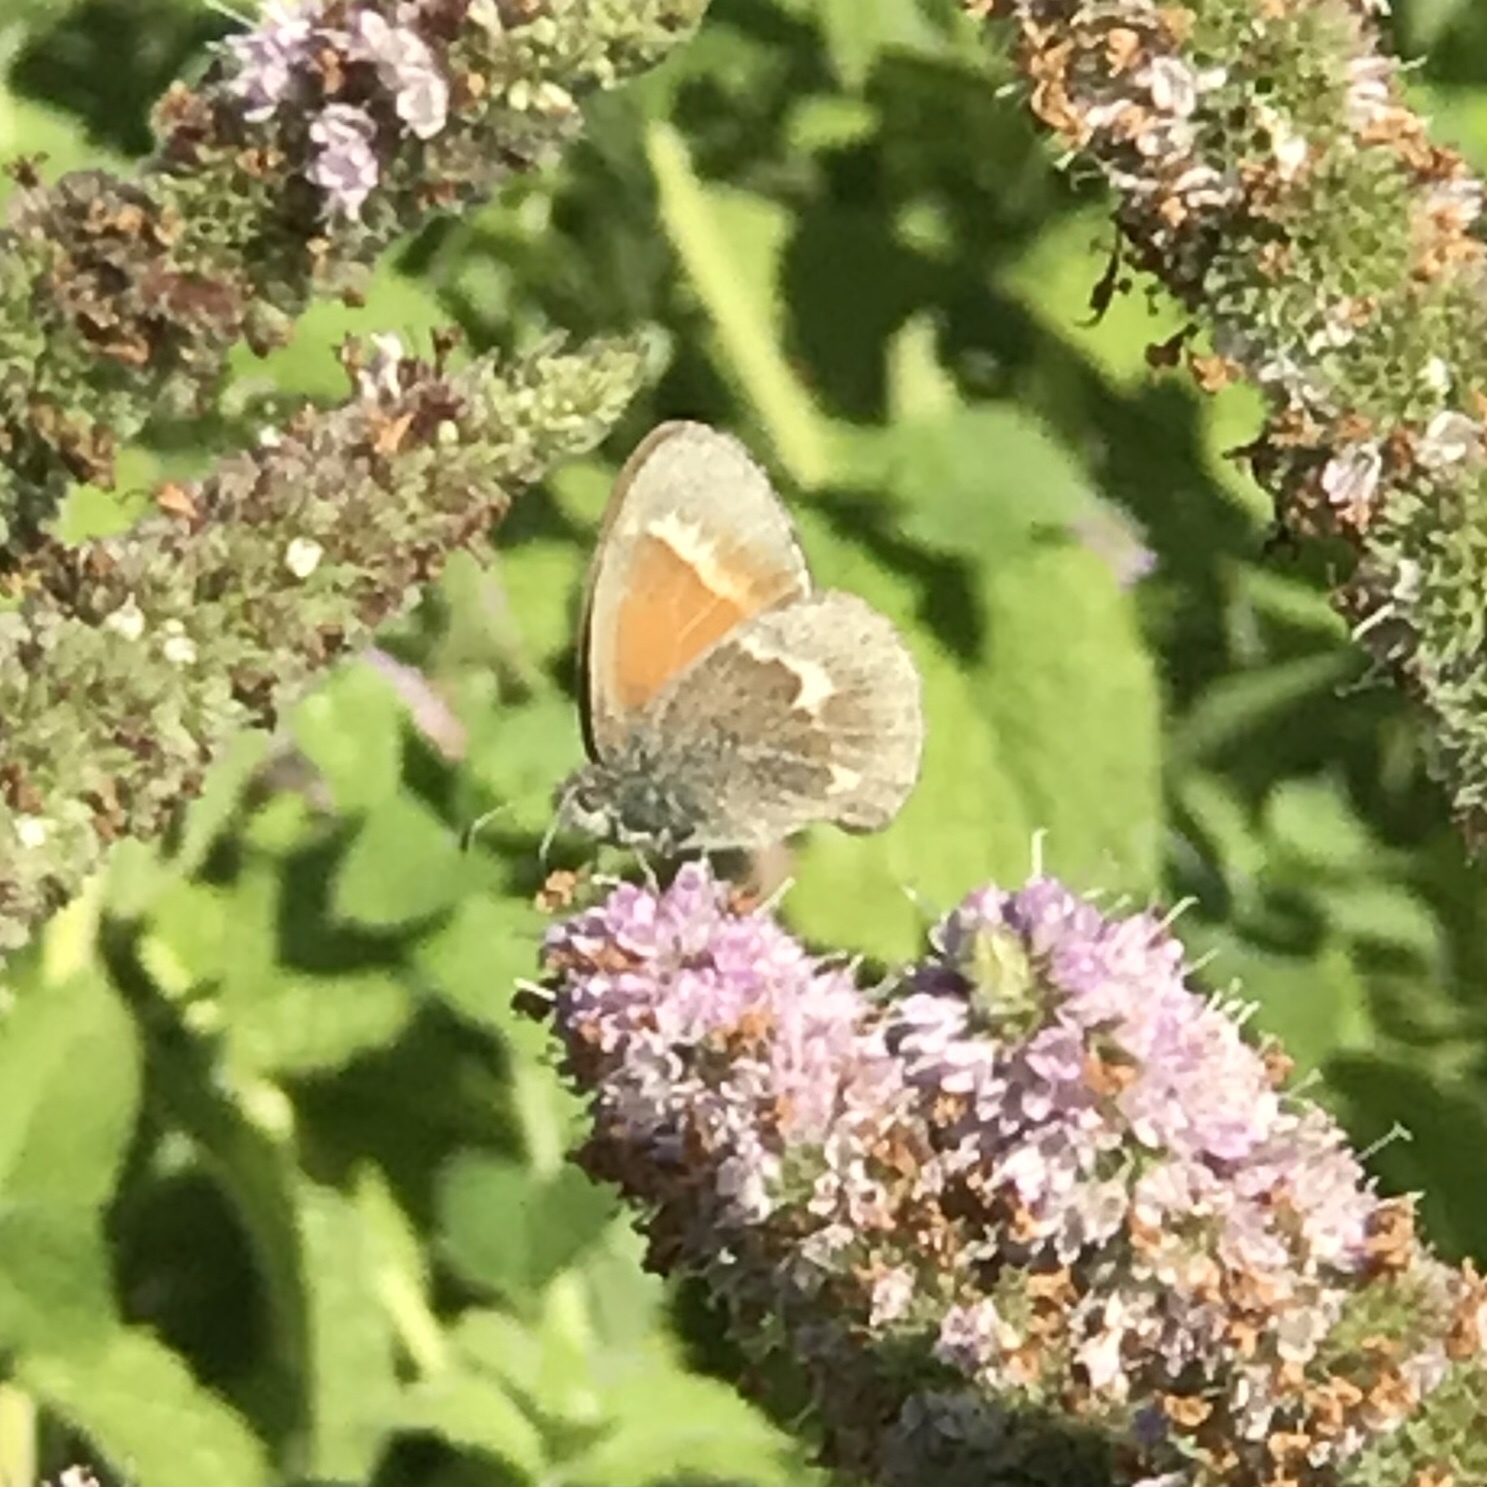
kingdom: Animalia
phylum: Arthropoda
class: Insecta
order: Lepidoptera
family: Nymphalidae
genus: Coenonympha
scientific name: Coenonympha california
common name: Common ringlet
